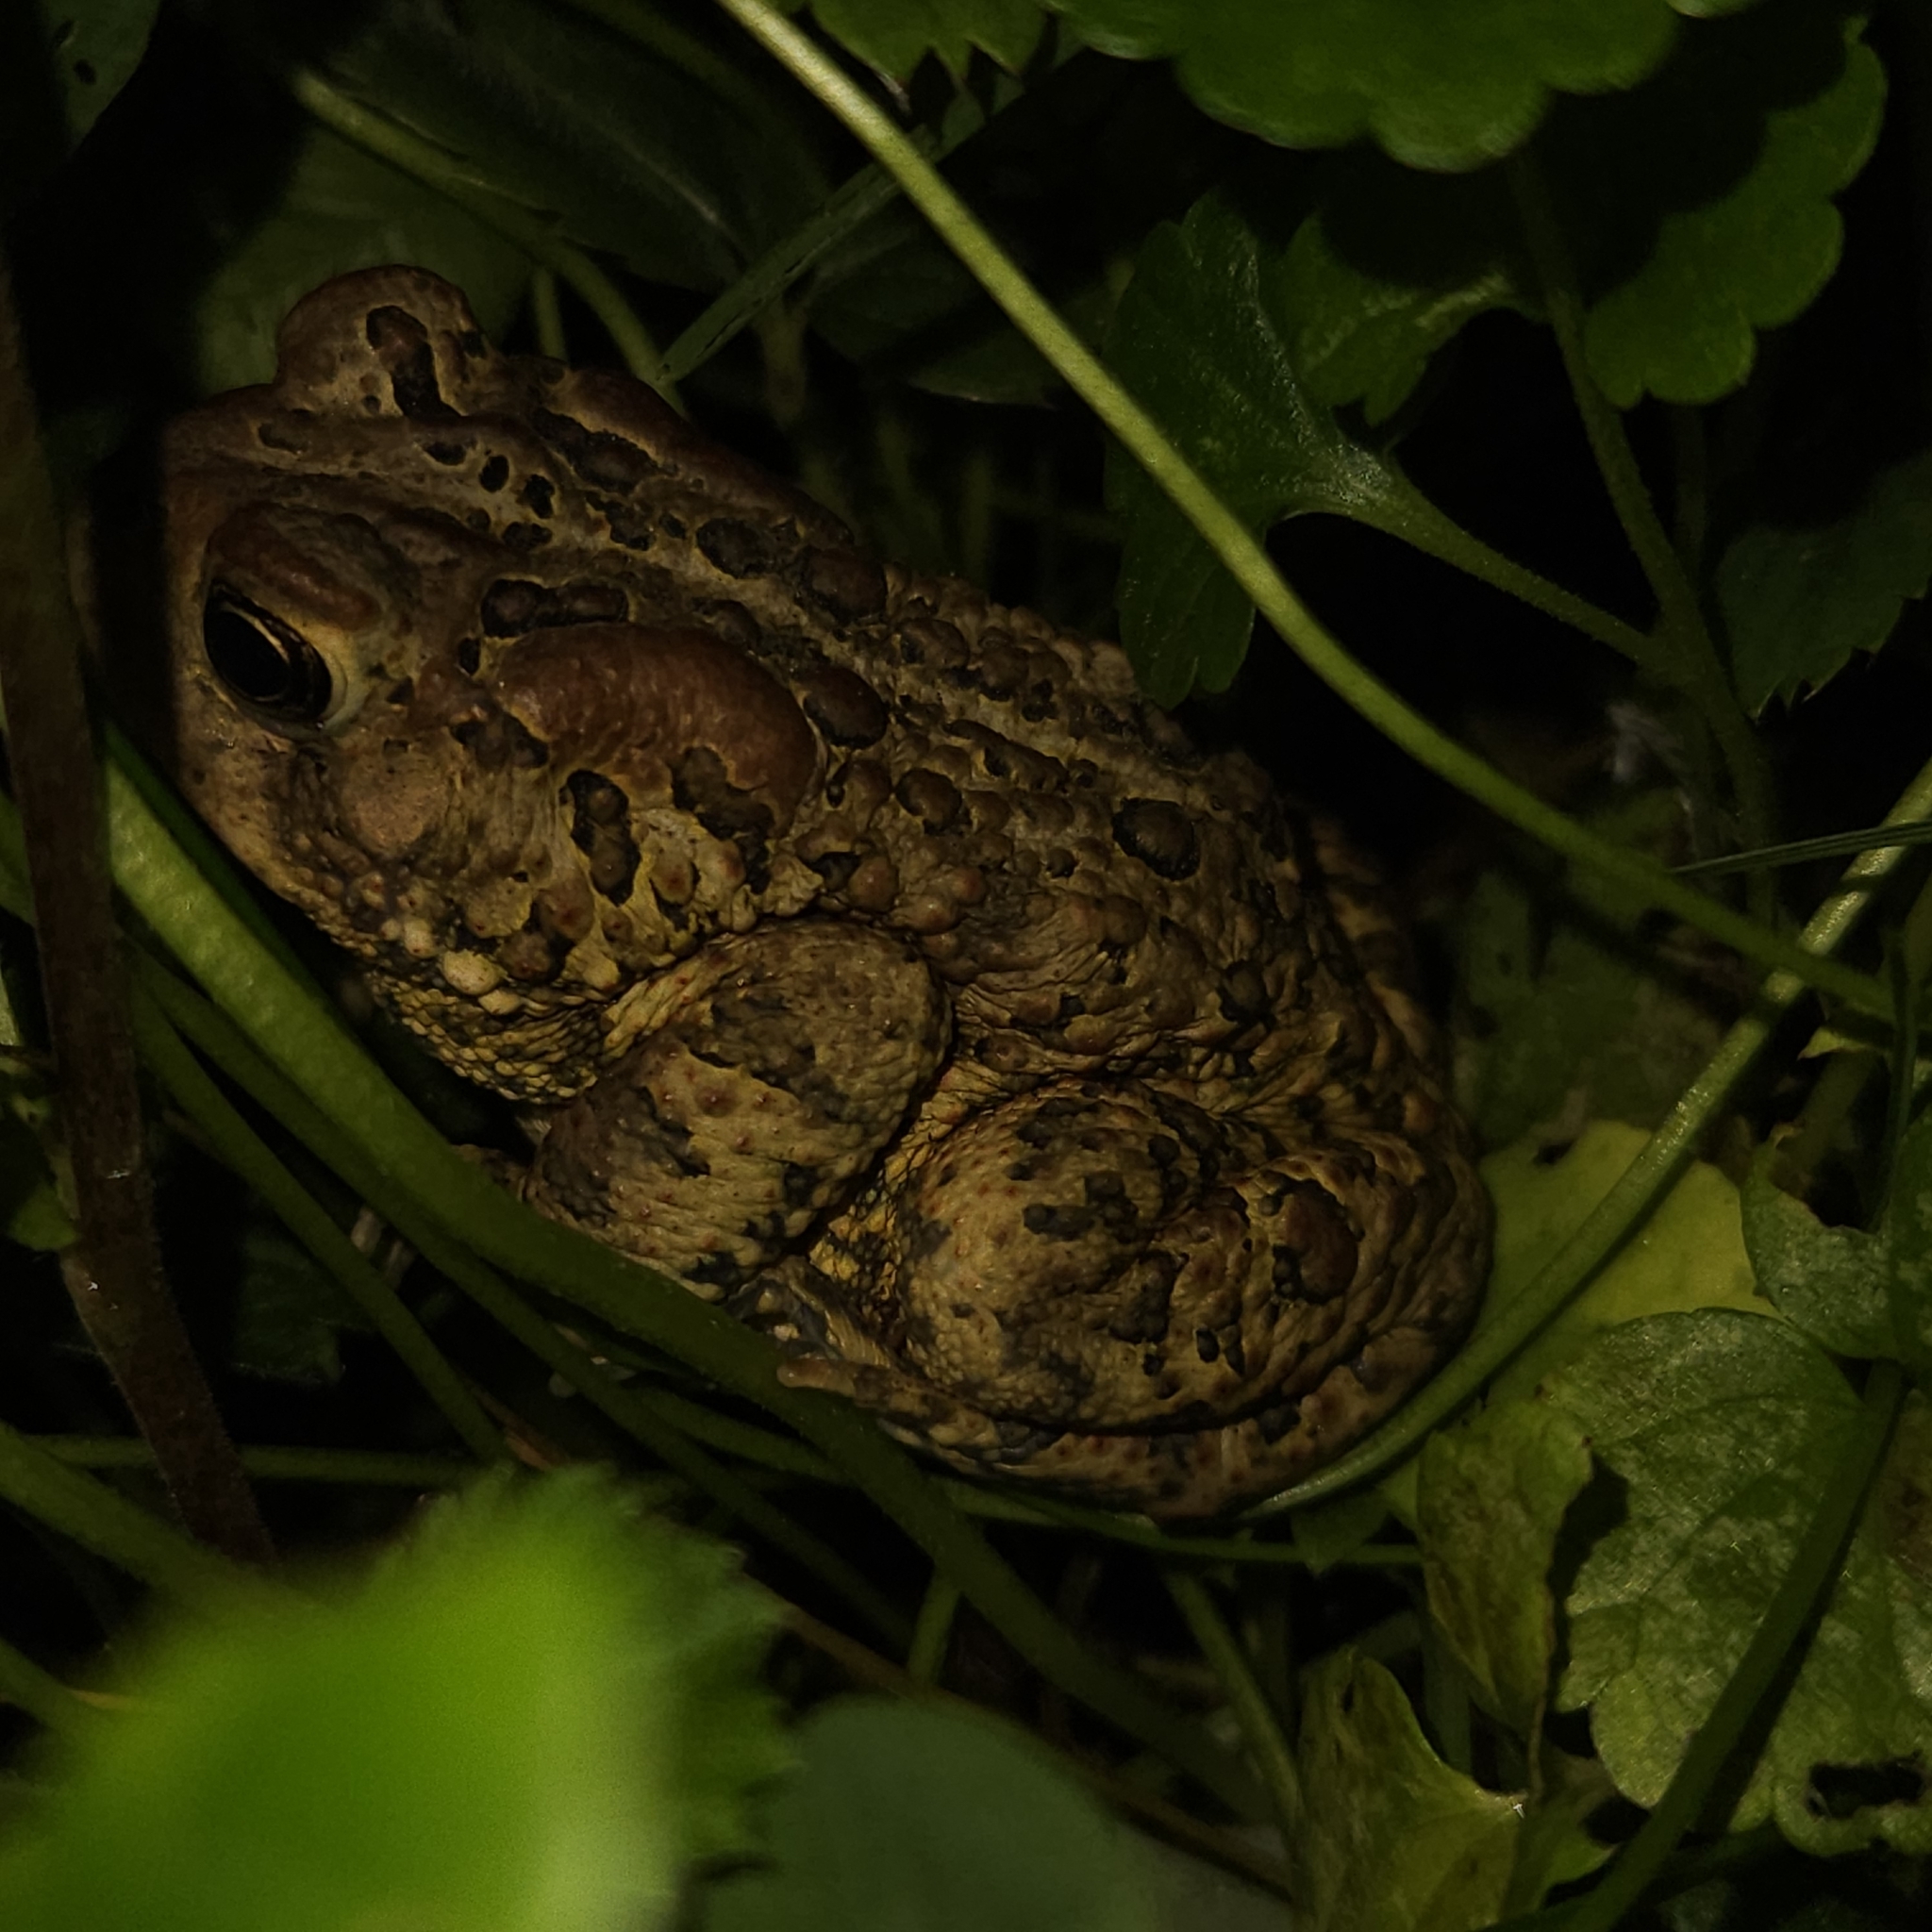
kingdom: Animalia
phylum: Chordata
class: Amphibia
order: Anura
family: Bufonidae
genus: Anaxyrus
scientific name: Anaxyrus americanus
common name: American toad
